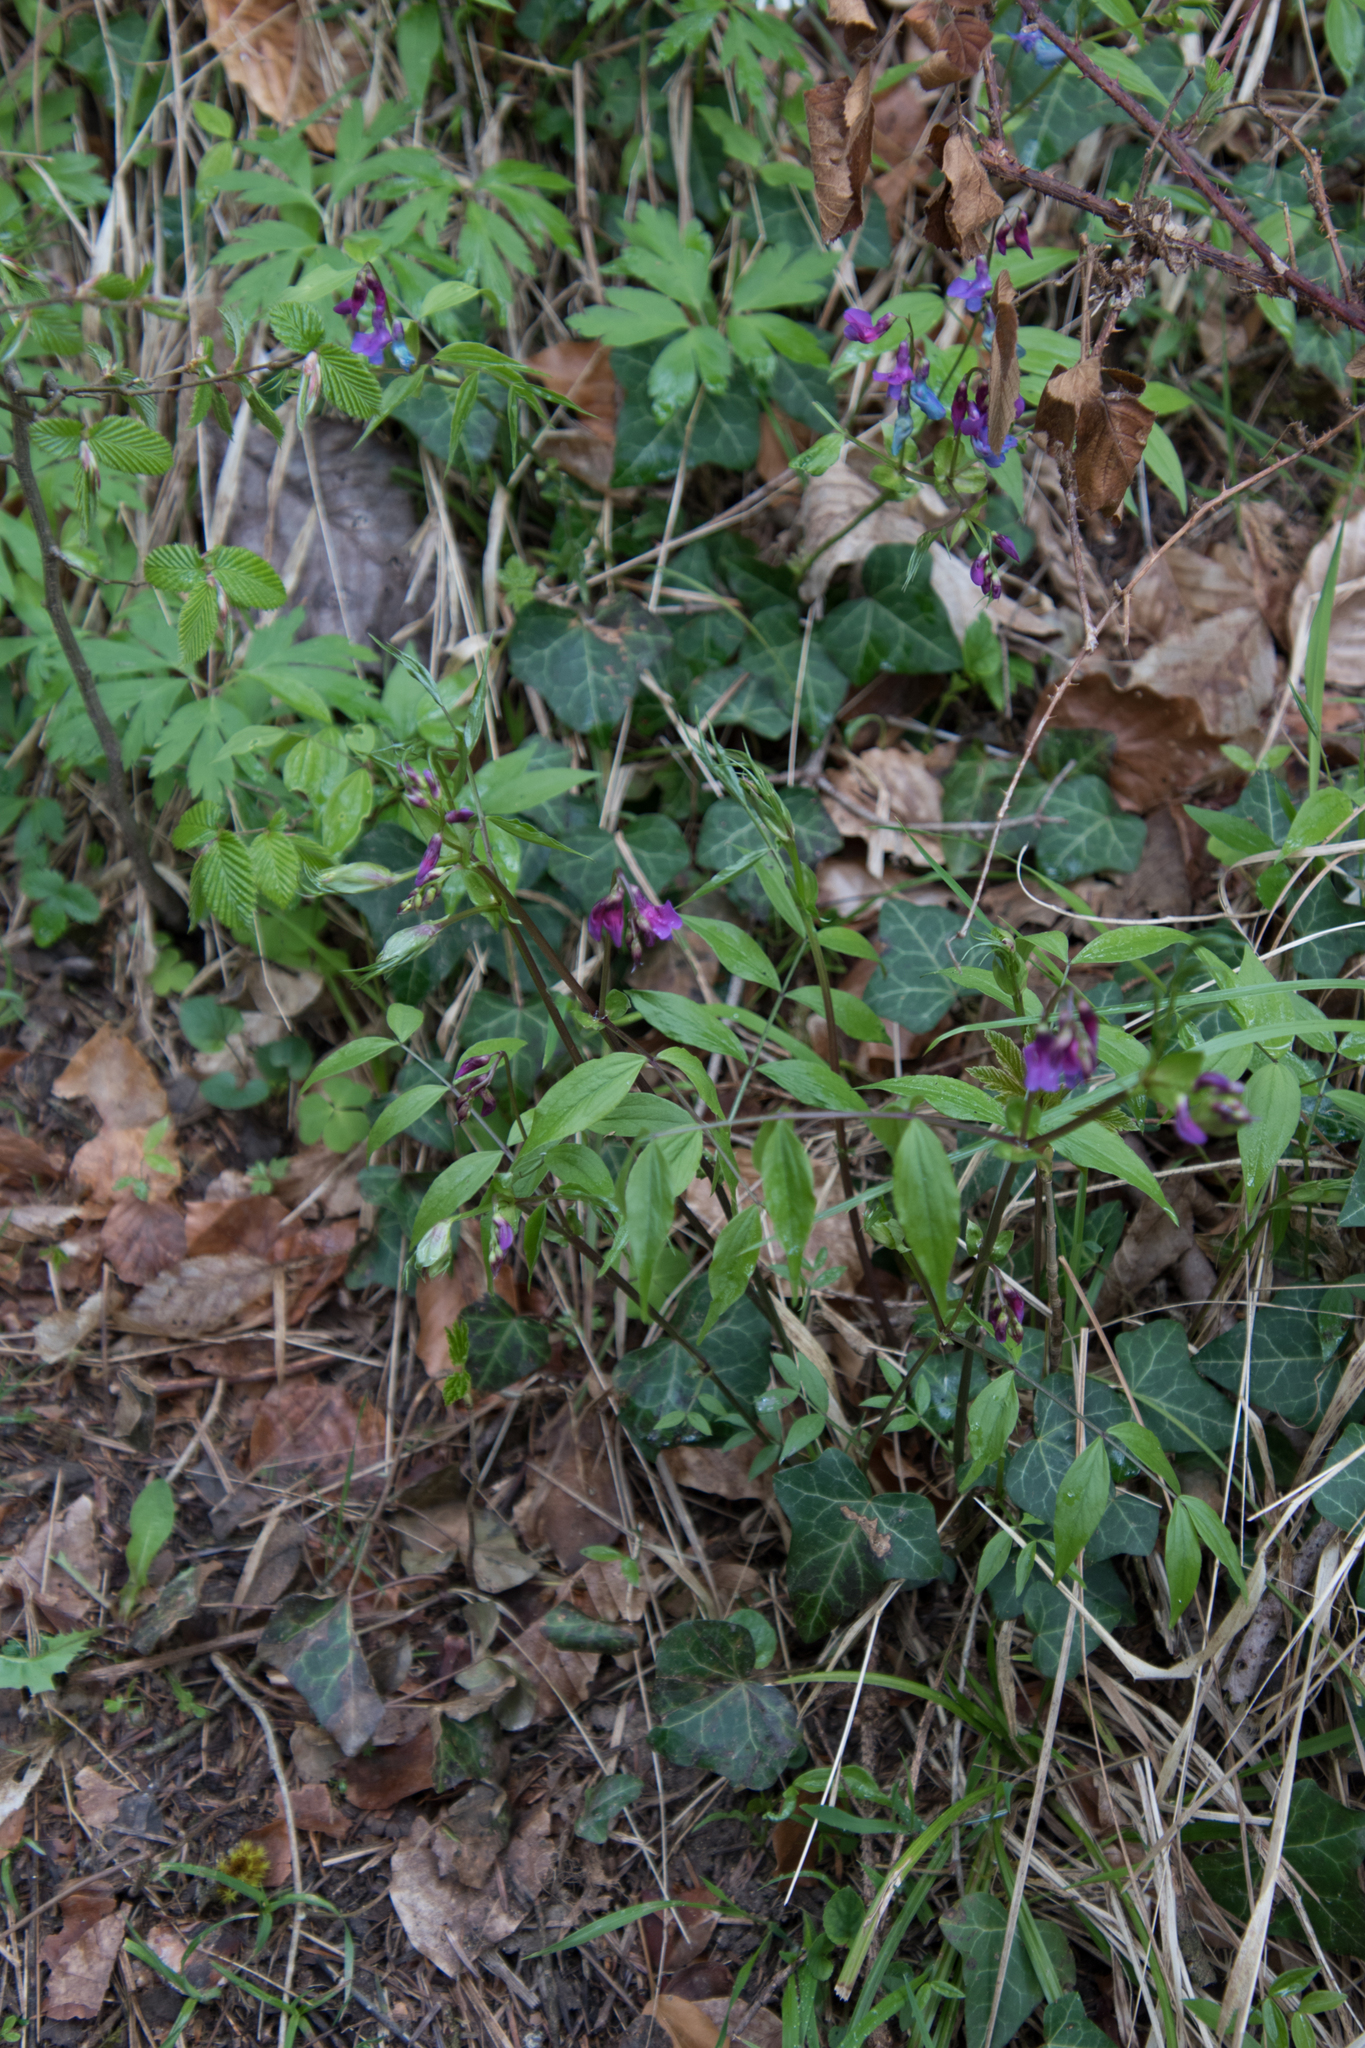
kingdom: Plantae
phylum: Tracheophyta
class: Magnoliopsida
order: Fabales
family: Fabaceae
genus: Lathyrus
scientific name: Lathyrus vernus
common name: Spring pea
